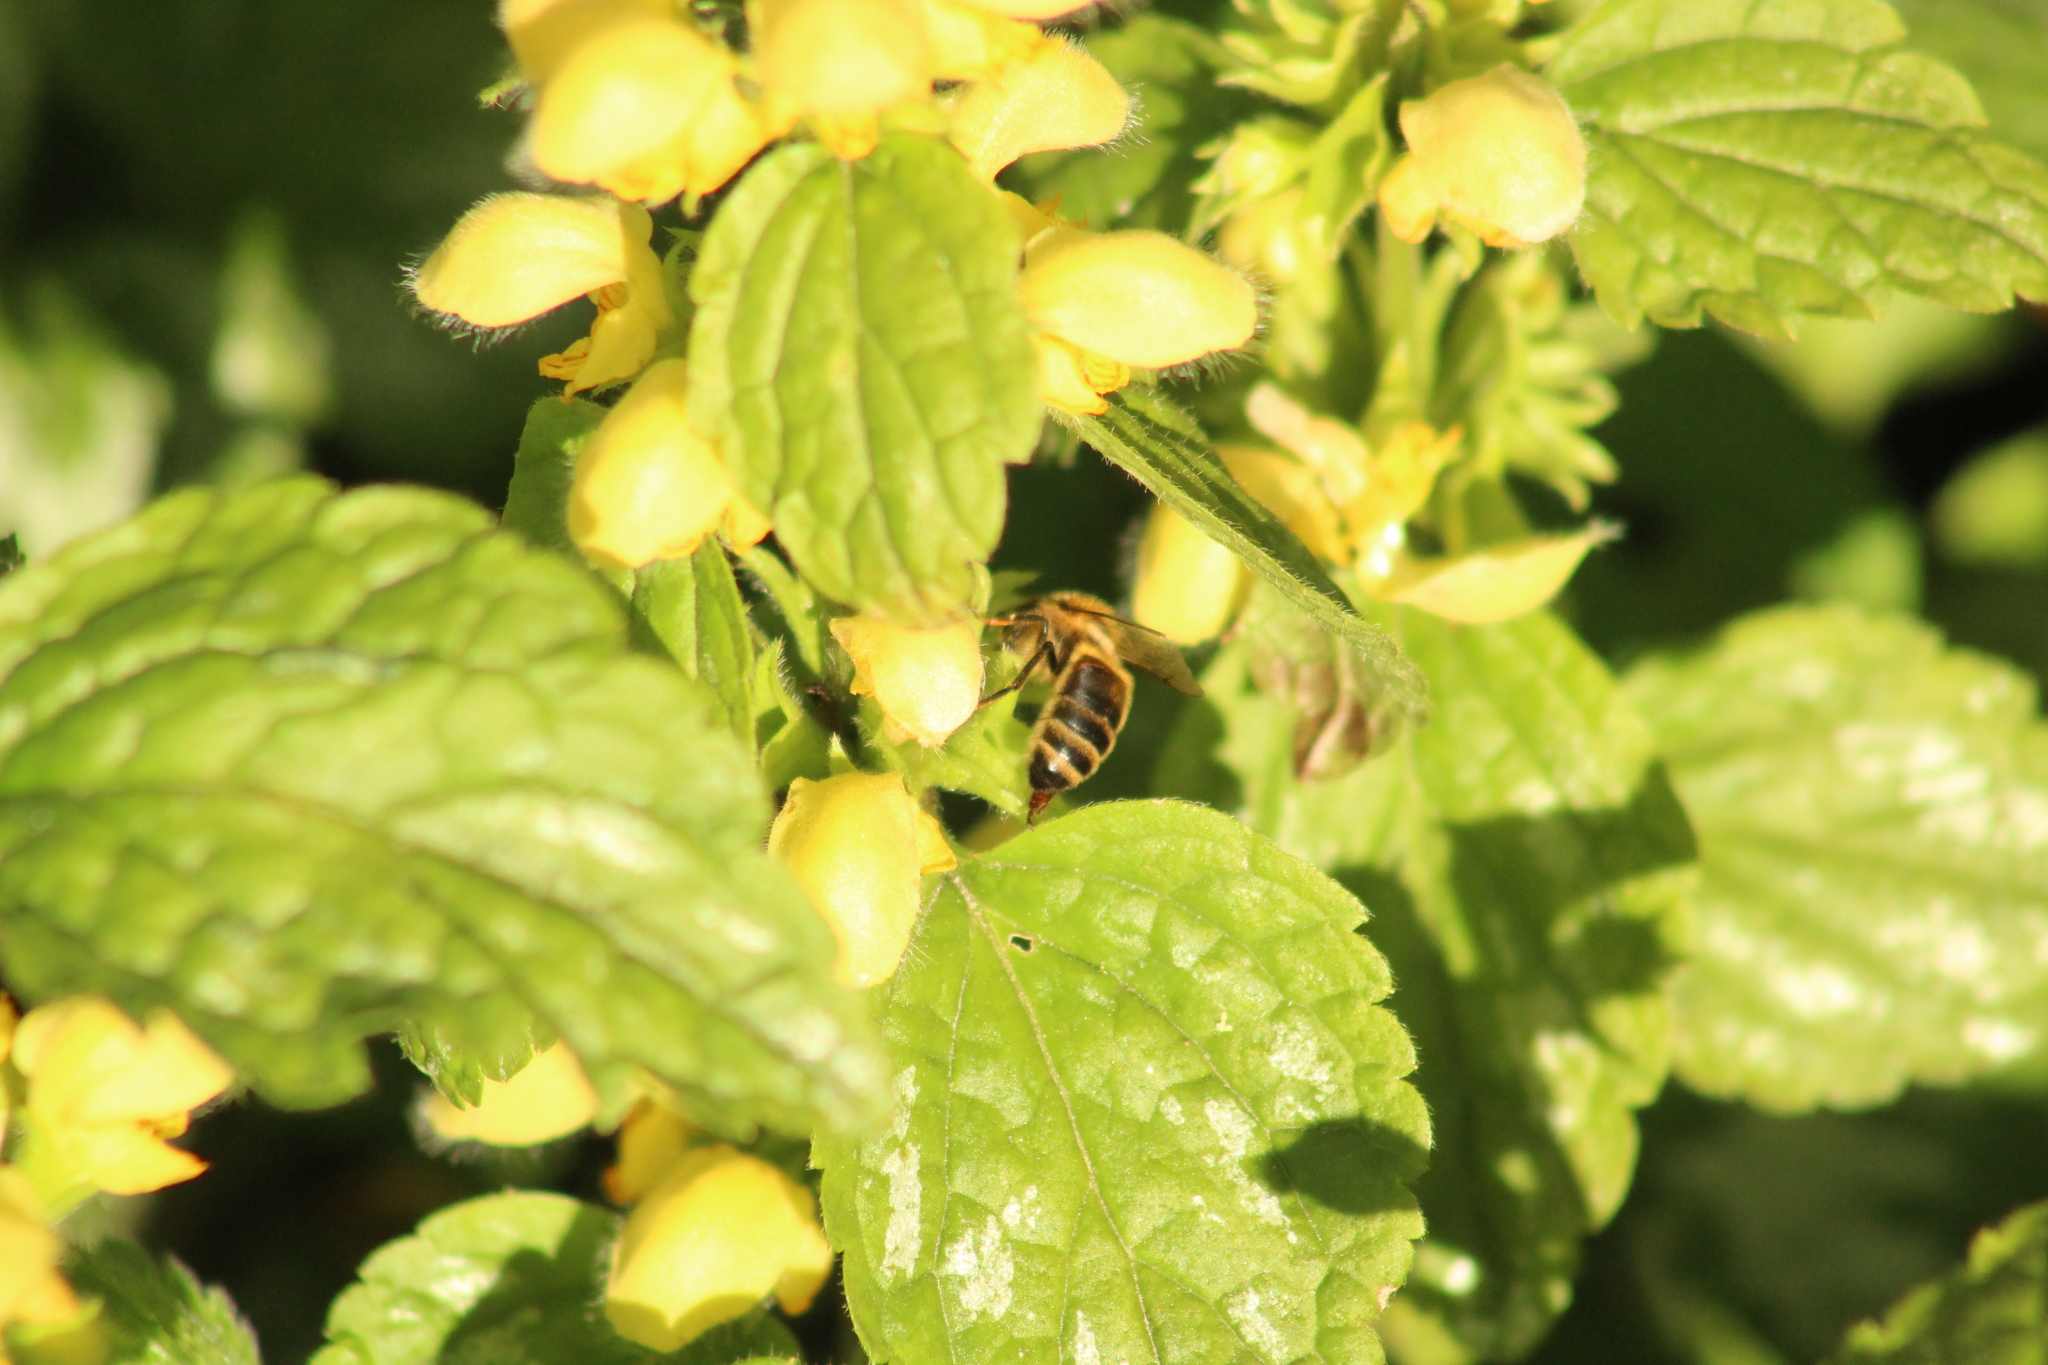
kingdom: Animalia
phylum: Arthropoda
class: Insecta
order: Hymenoptera
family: Apidae
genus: Apis
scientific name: Apis mellifera
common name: Honey bee
